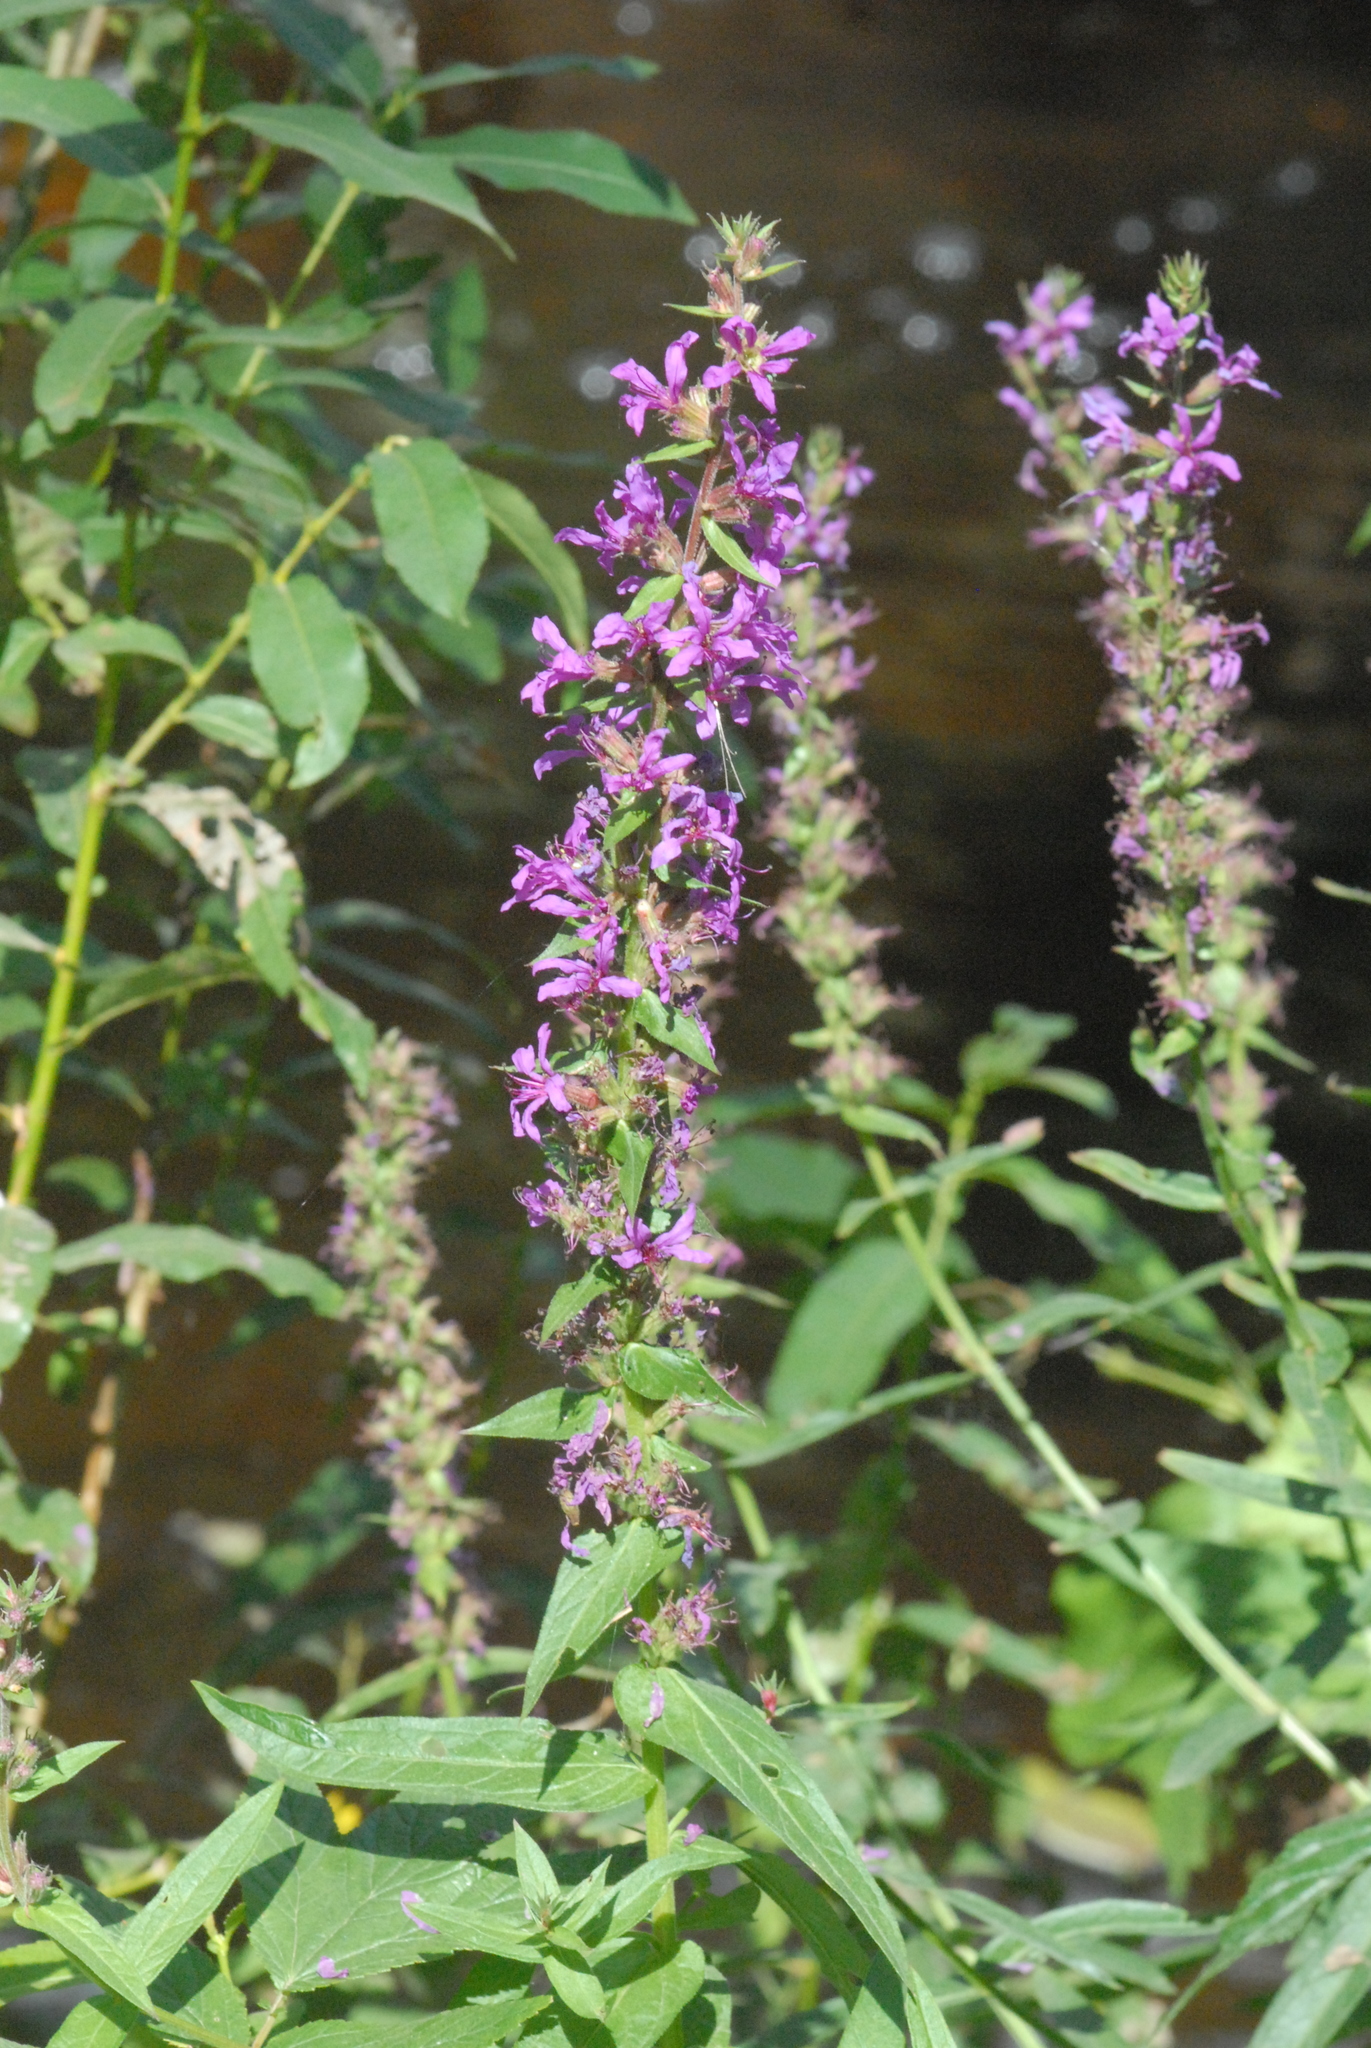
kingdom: Plantae
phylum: Tracheophyta
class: Magnoliopsida
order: Myrtales
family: Lythraceae
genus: Lythrum
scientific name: Lythrum salicaria
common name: Purple loosestrife
